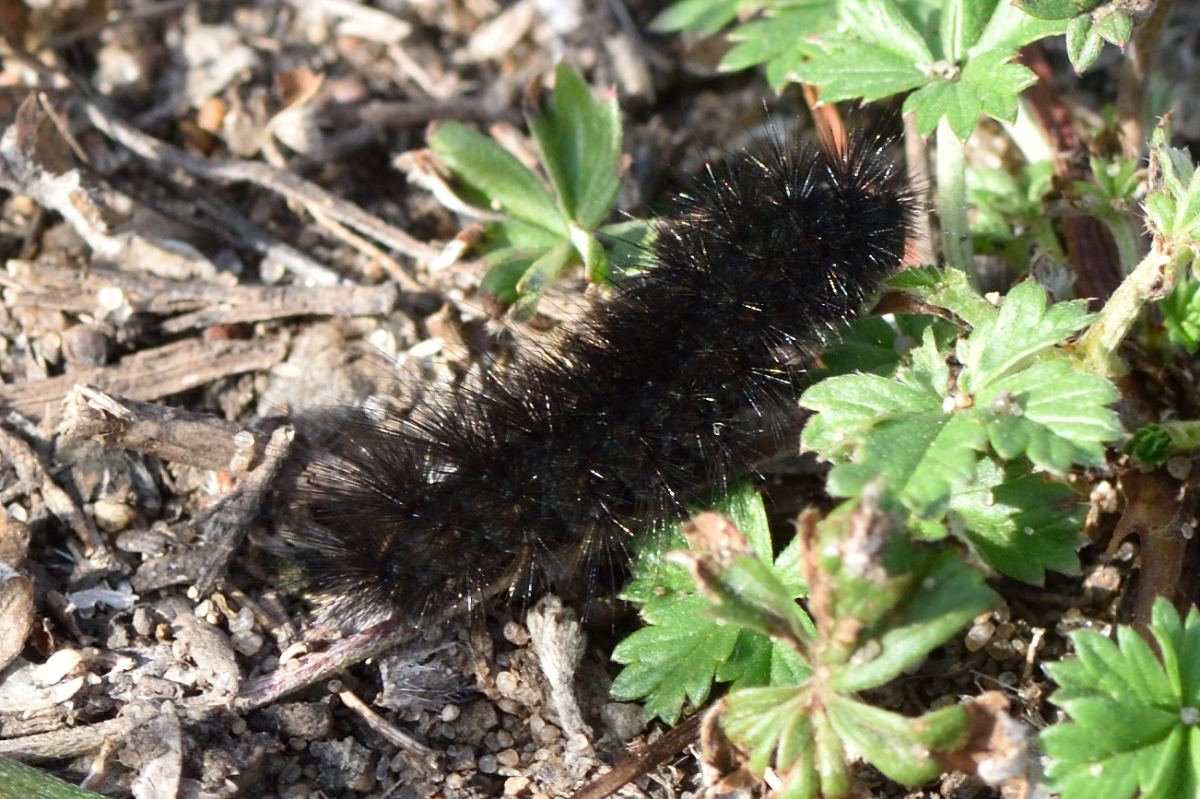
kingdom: Animalia
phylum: Arthropoda
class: Insecta
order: Lepidoptera
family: Erebidae
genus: Phragmatobia
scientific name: Phragmatobia fuliginosa
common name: Ruby tiger
